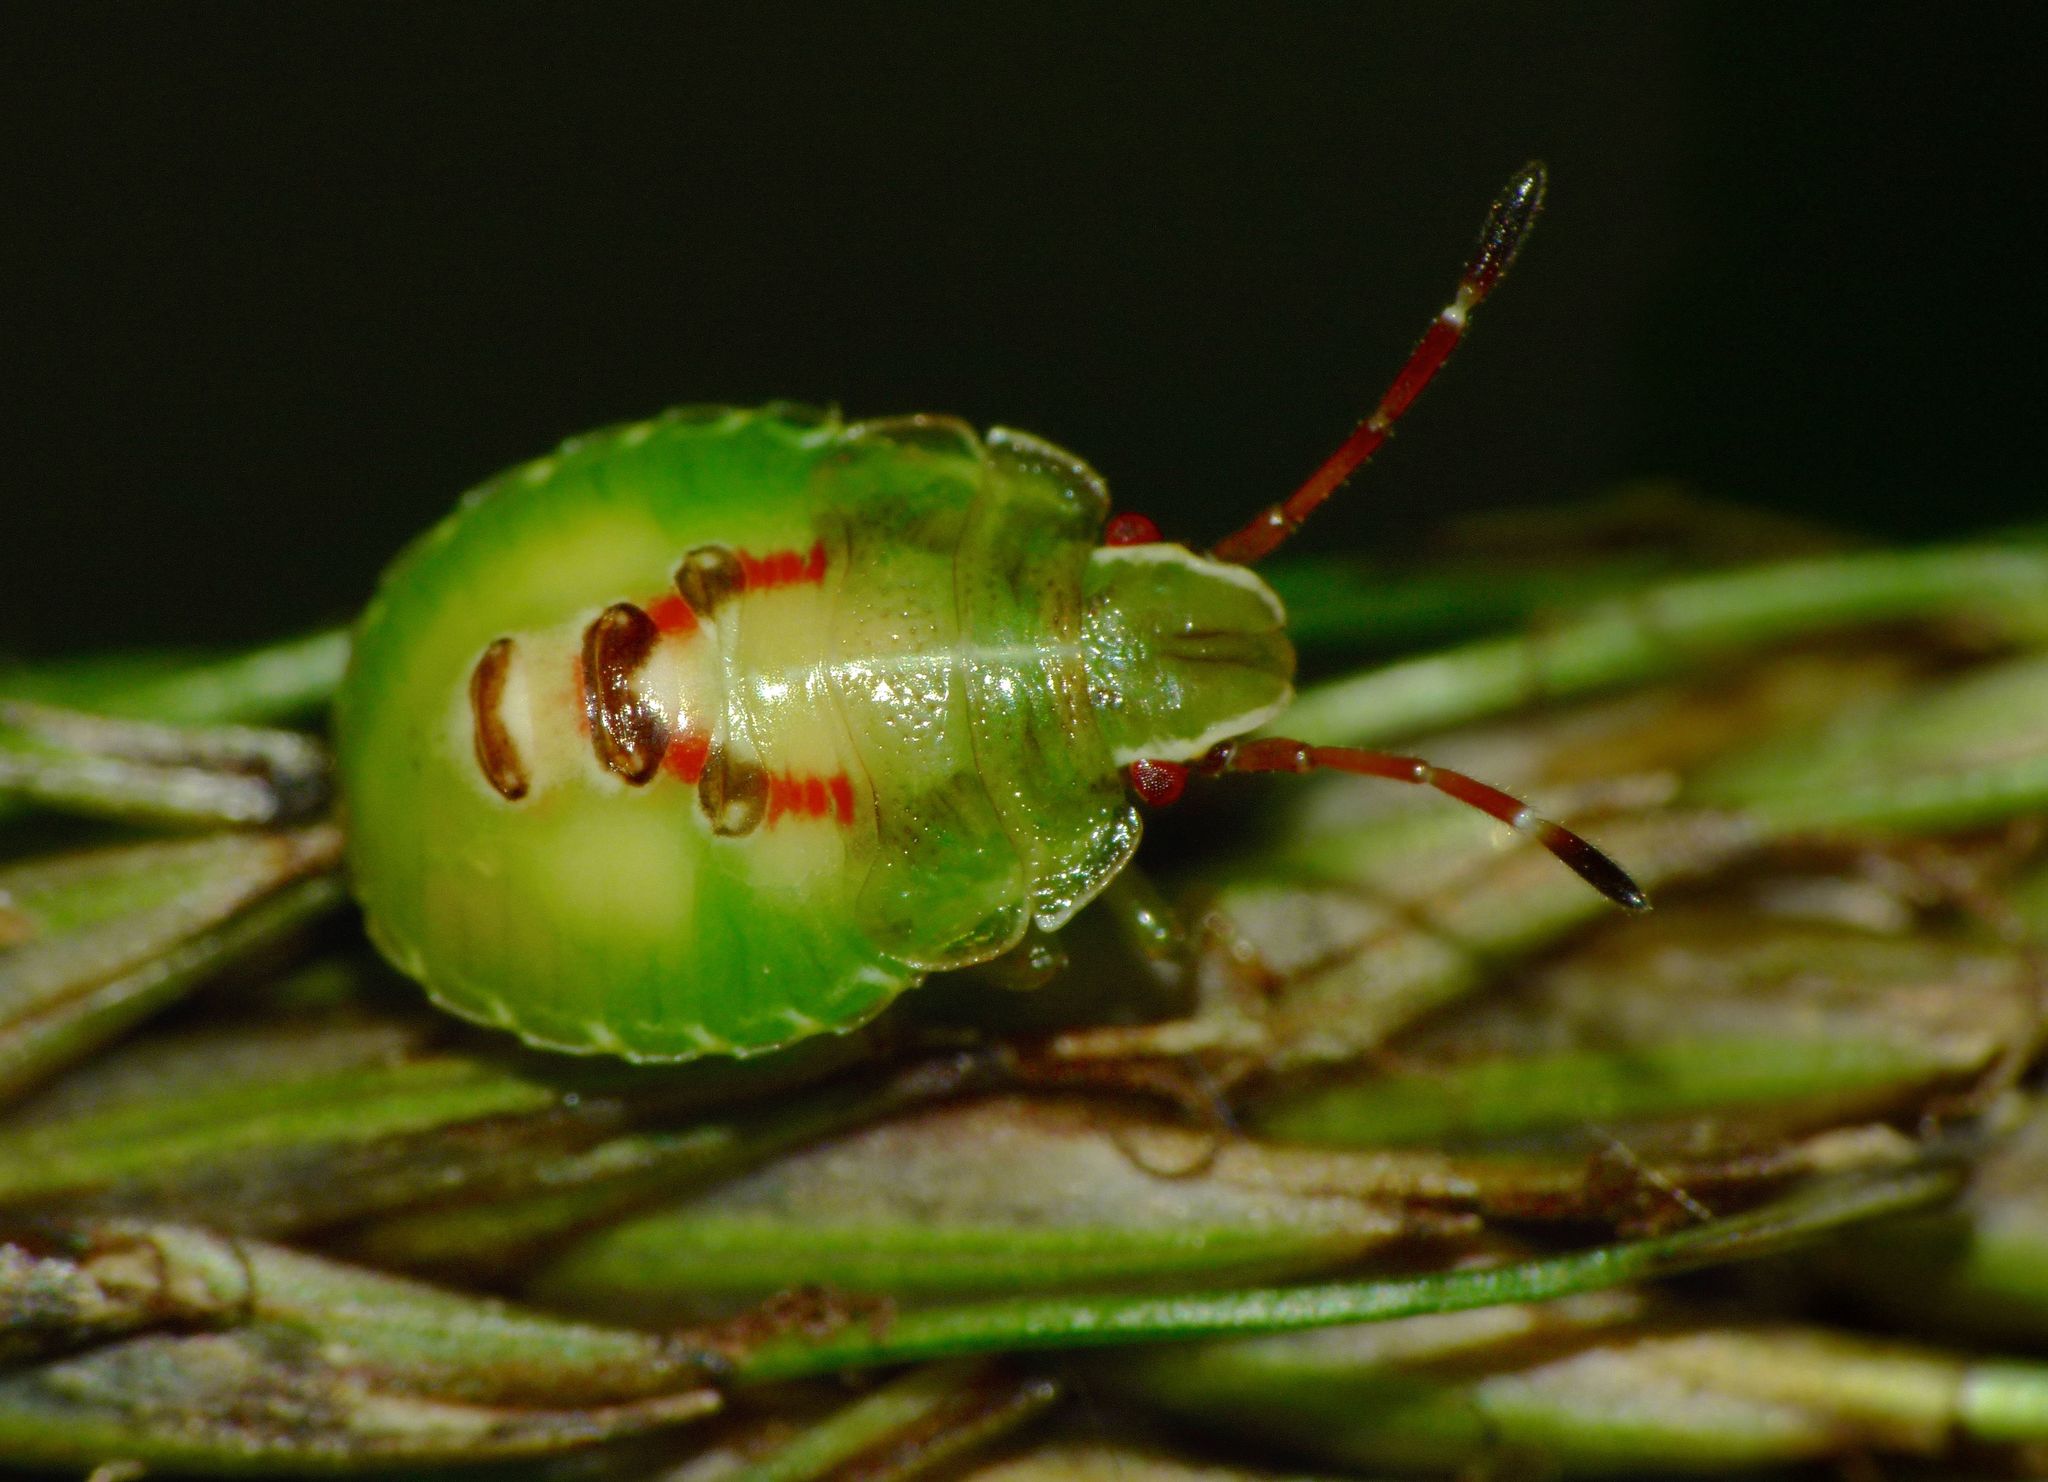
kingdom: Animalia
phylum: Arthropoda
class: Insecta
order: Hemiptera
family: Acanthosomatidae
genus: Oncacontias
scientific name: Oncacontias vittatus
